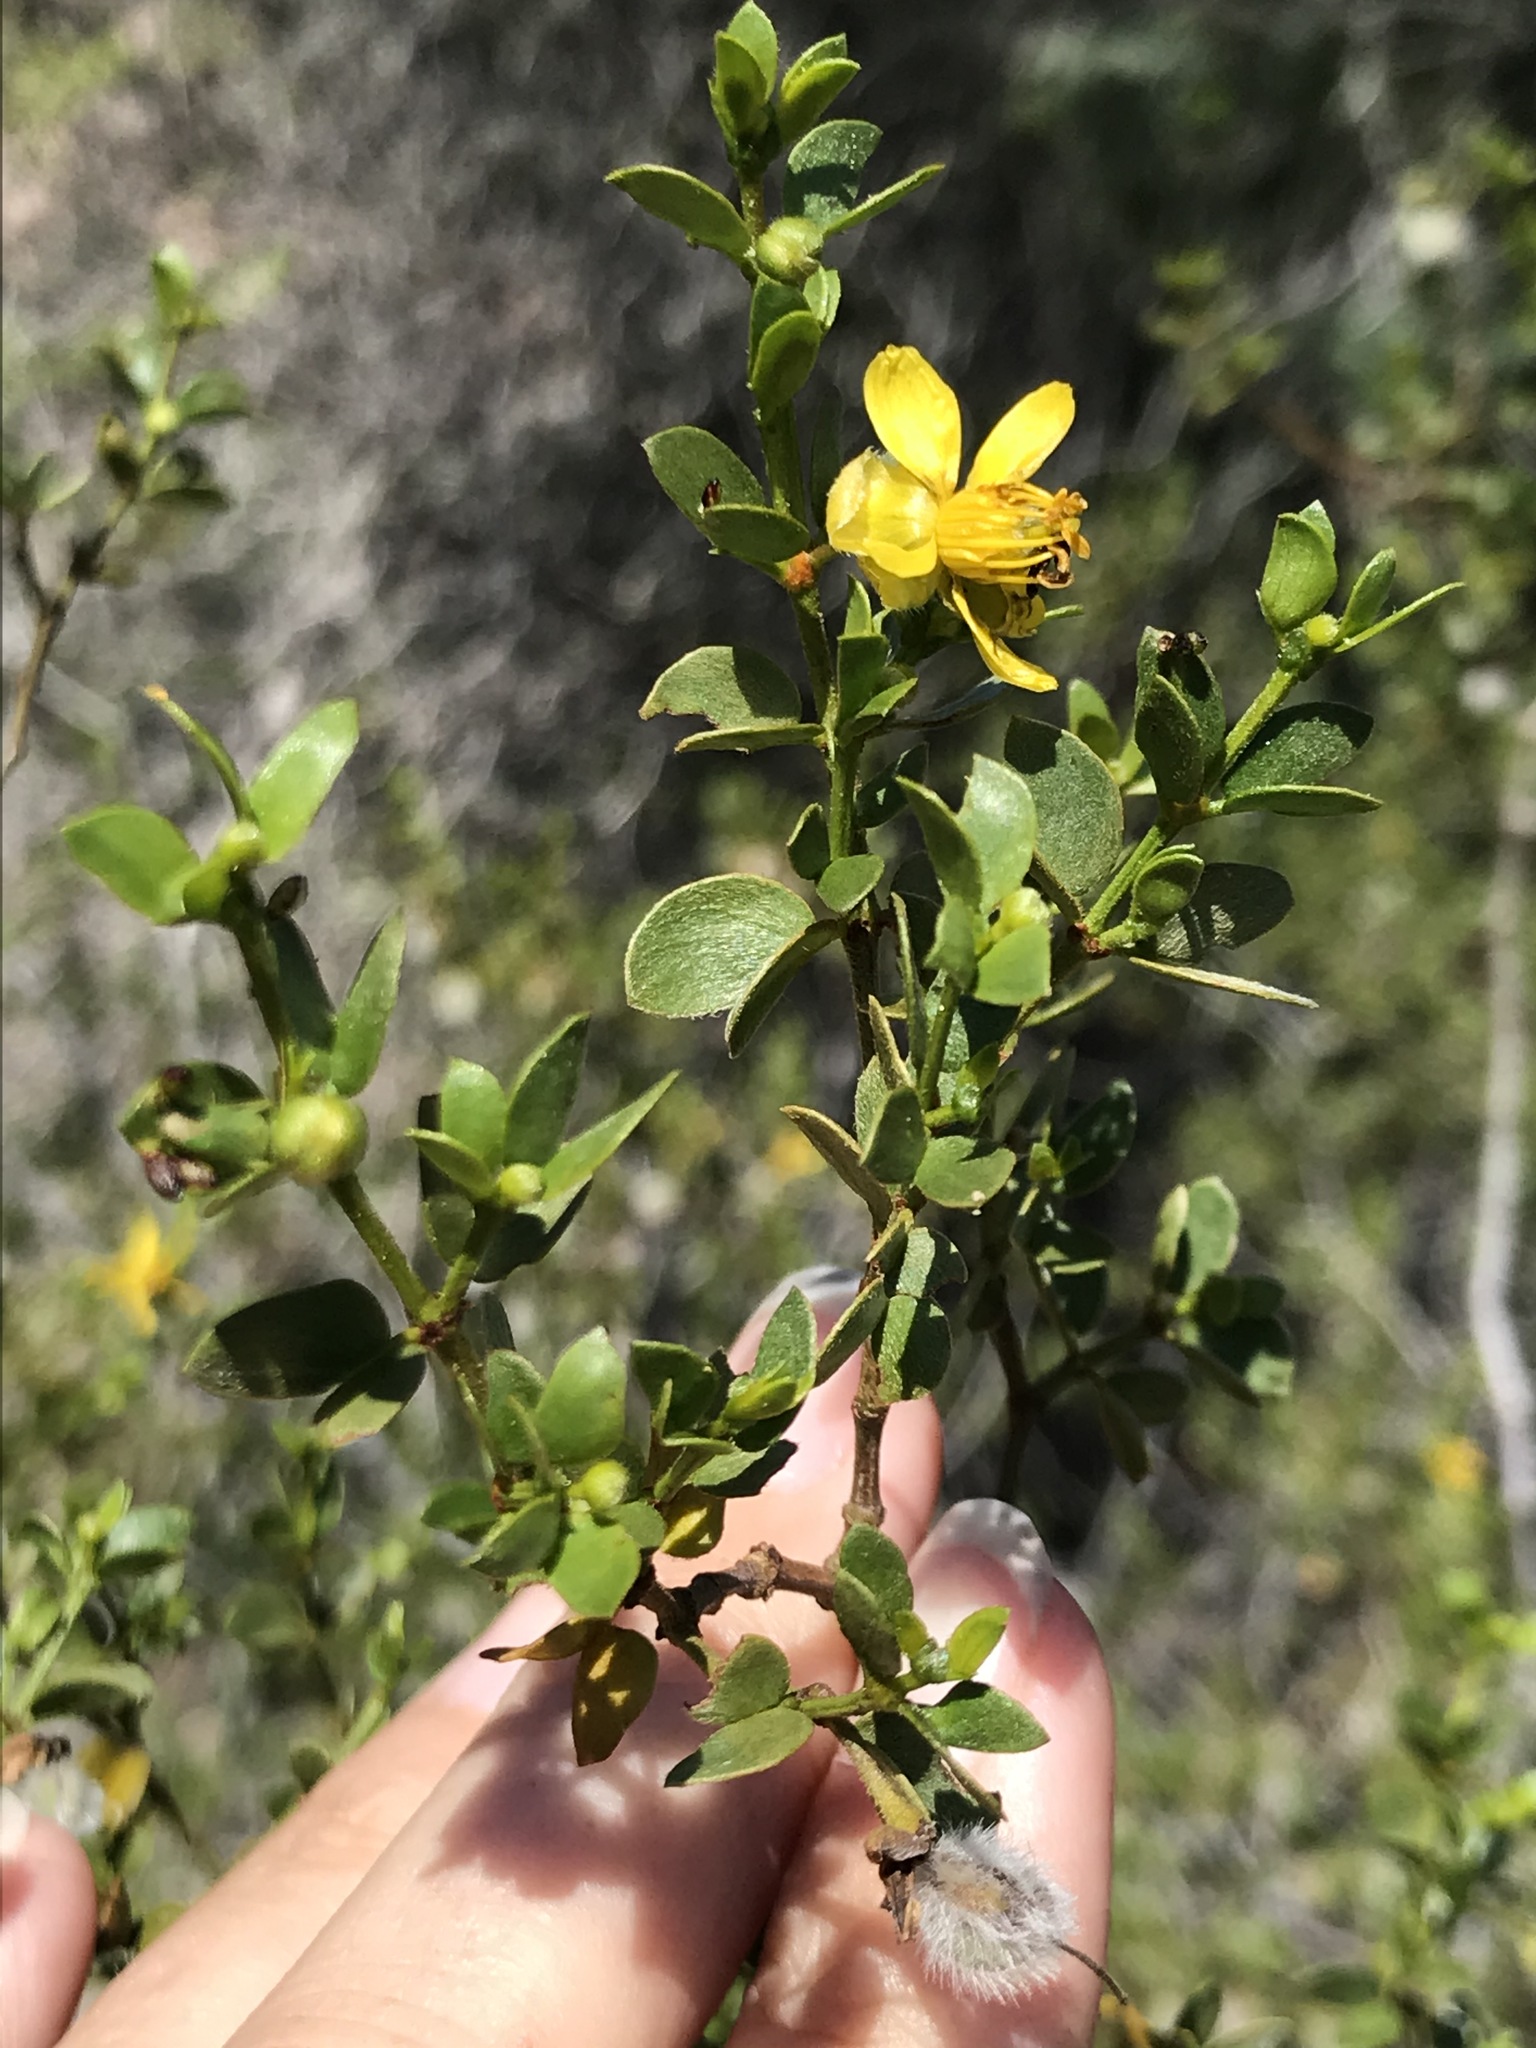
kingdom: Plantae
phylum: Tracheophyta
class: Magnoliopsida
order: Zygophyllales
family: Zygophyllaceae
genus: Larrea
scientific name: Larrea tridentata
